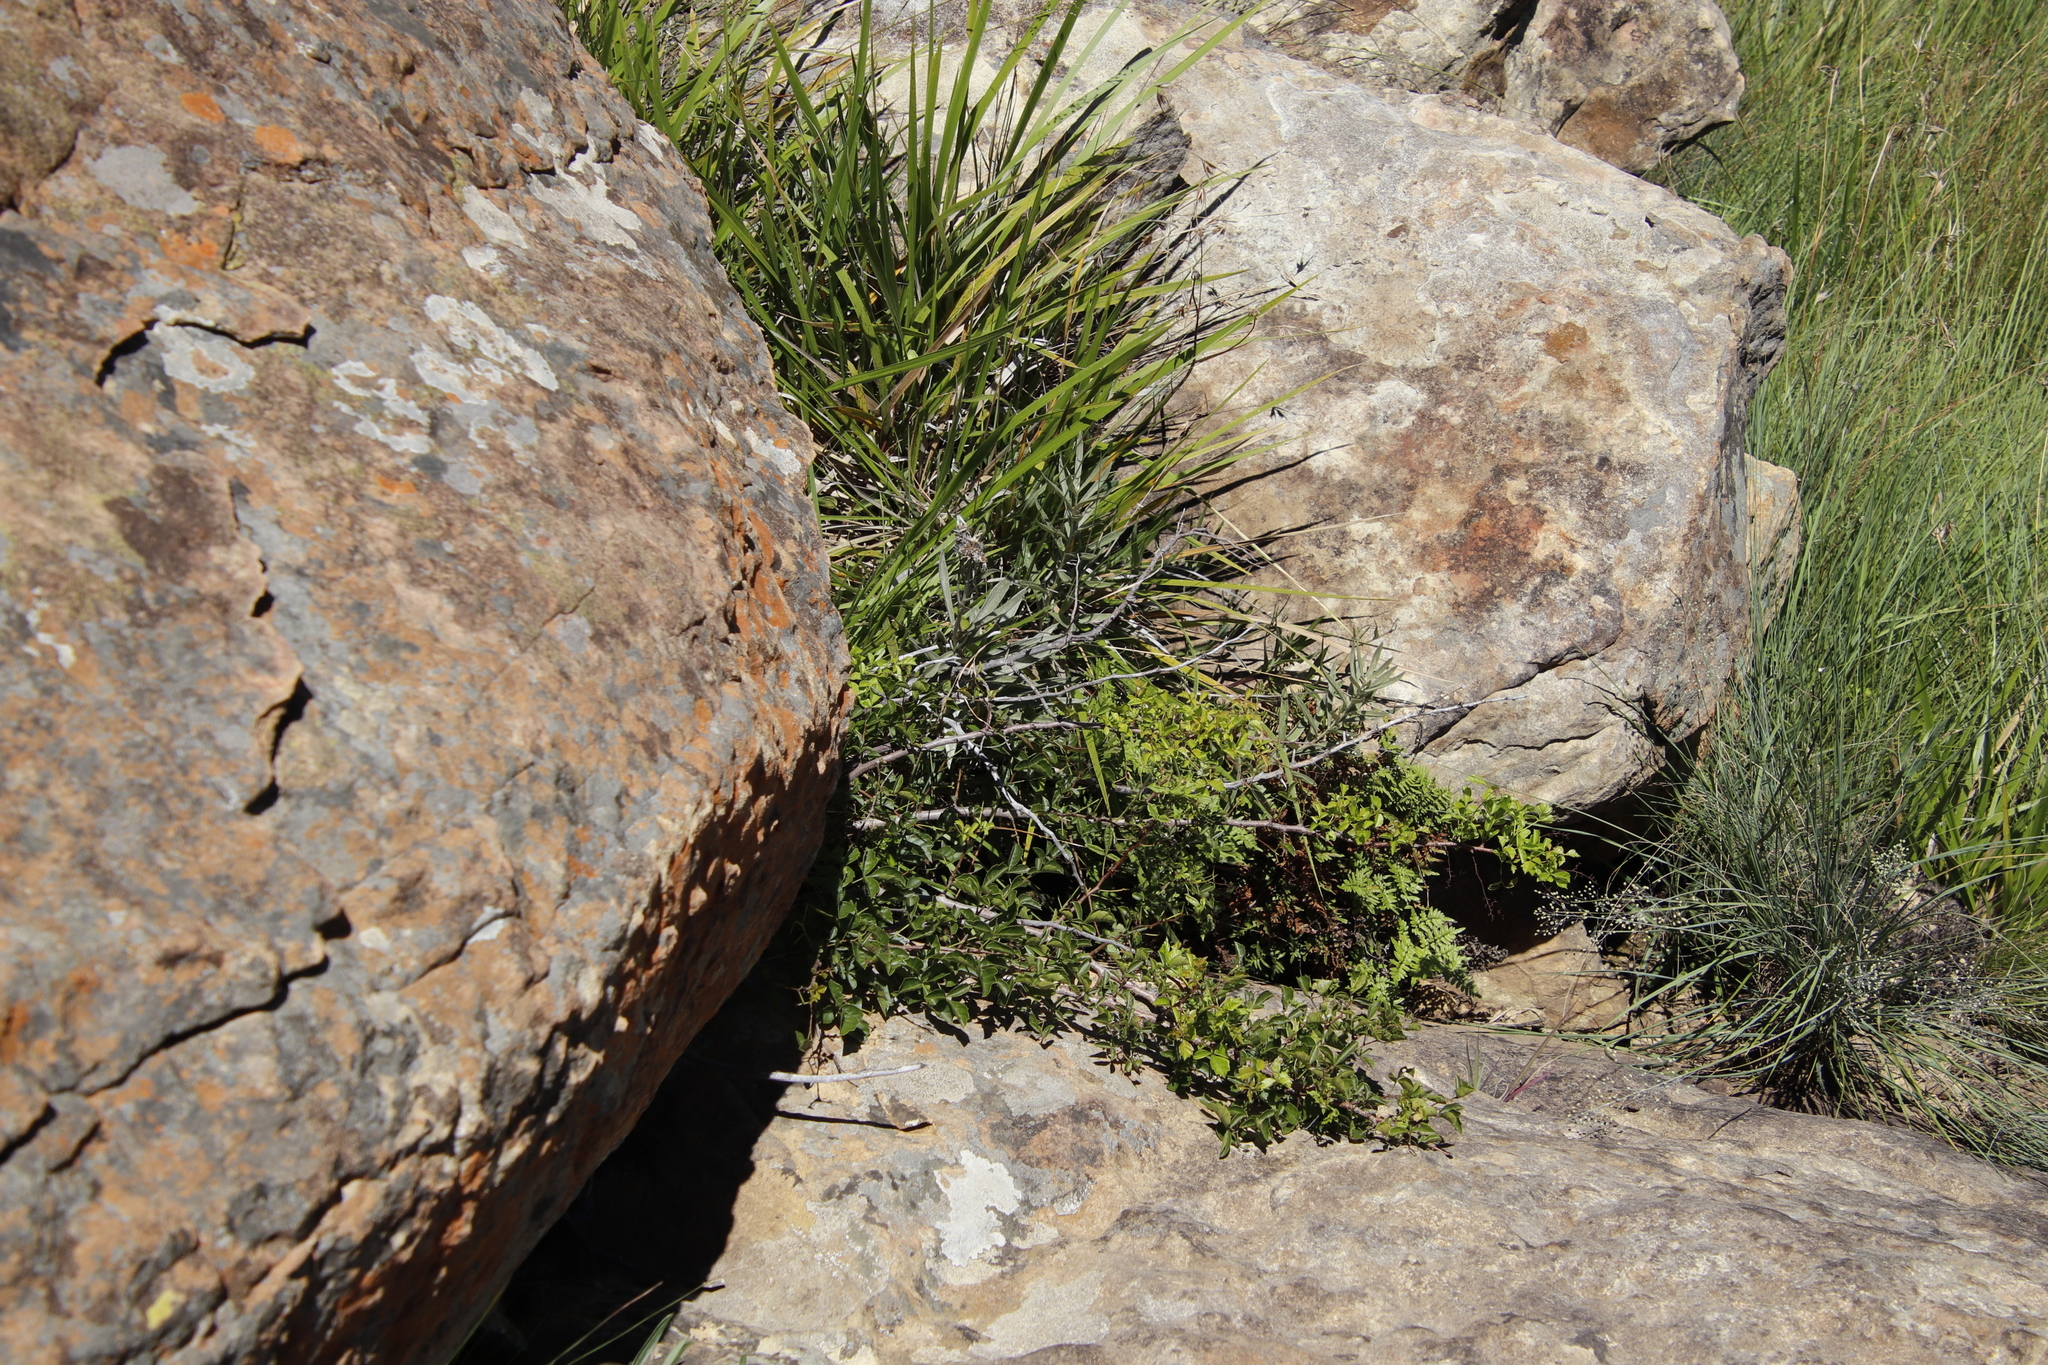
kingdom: Plantae
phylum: Tracheophyta
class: Magnoliopsida
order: Sapindales
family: Anacardiaceae
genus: Searsia
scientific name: Searsia dentata
